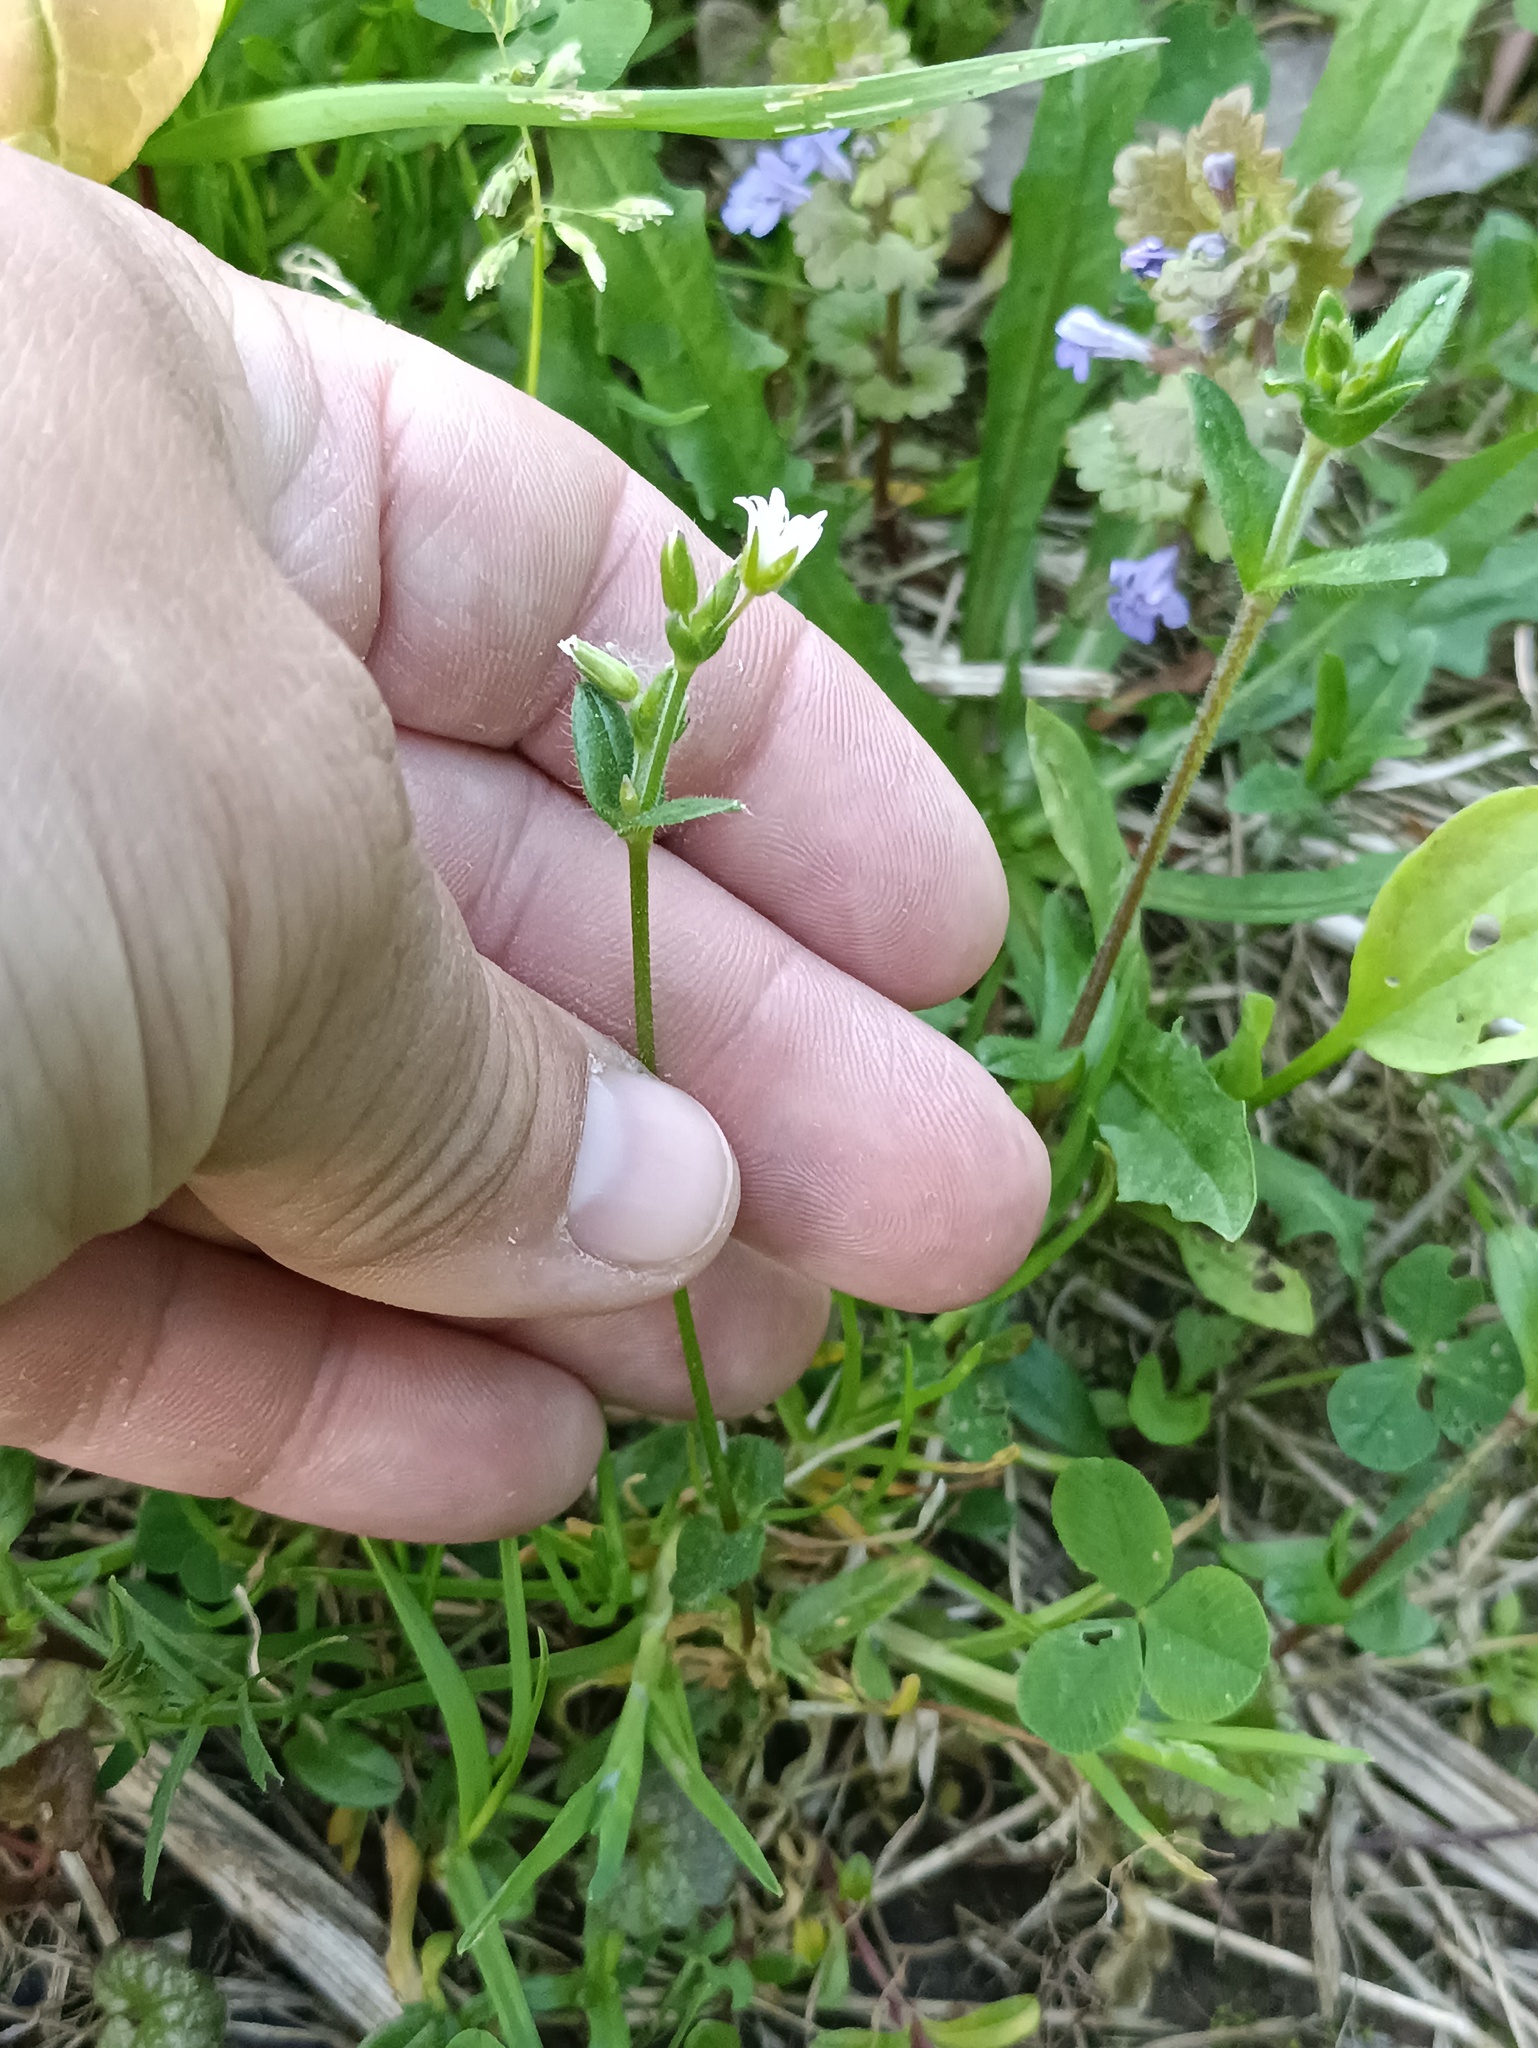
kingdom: Plantae
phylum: Tracheophyta
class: Magnoliopsida
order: Caryophyllales
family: Caryophyllaceae
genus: Cerastium
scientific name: Cerastium holosteoides
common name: Big chickweed
